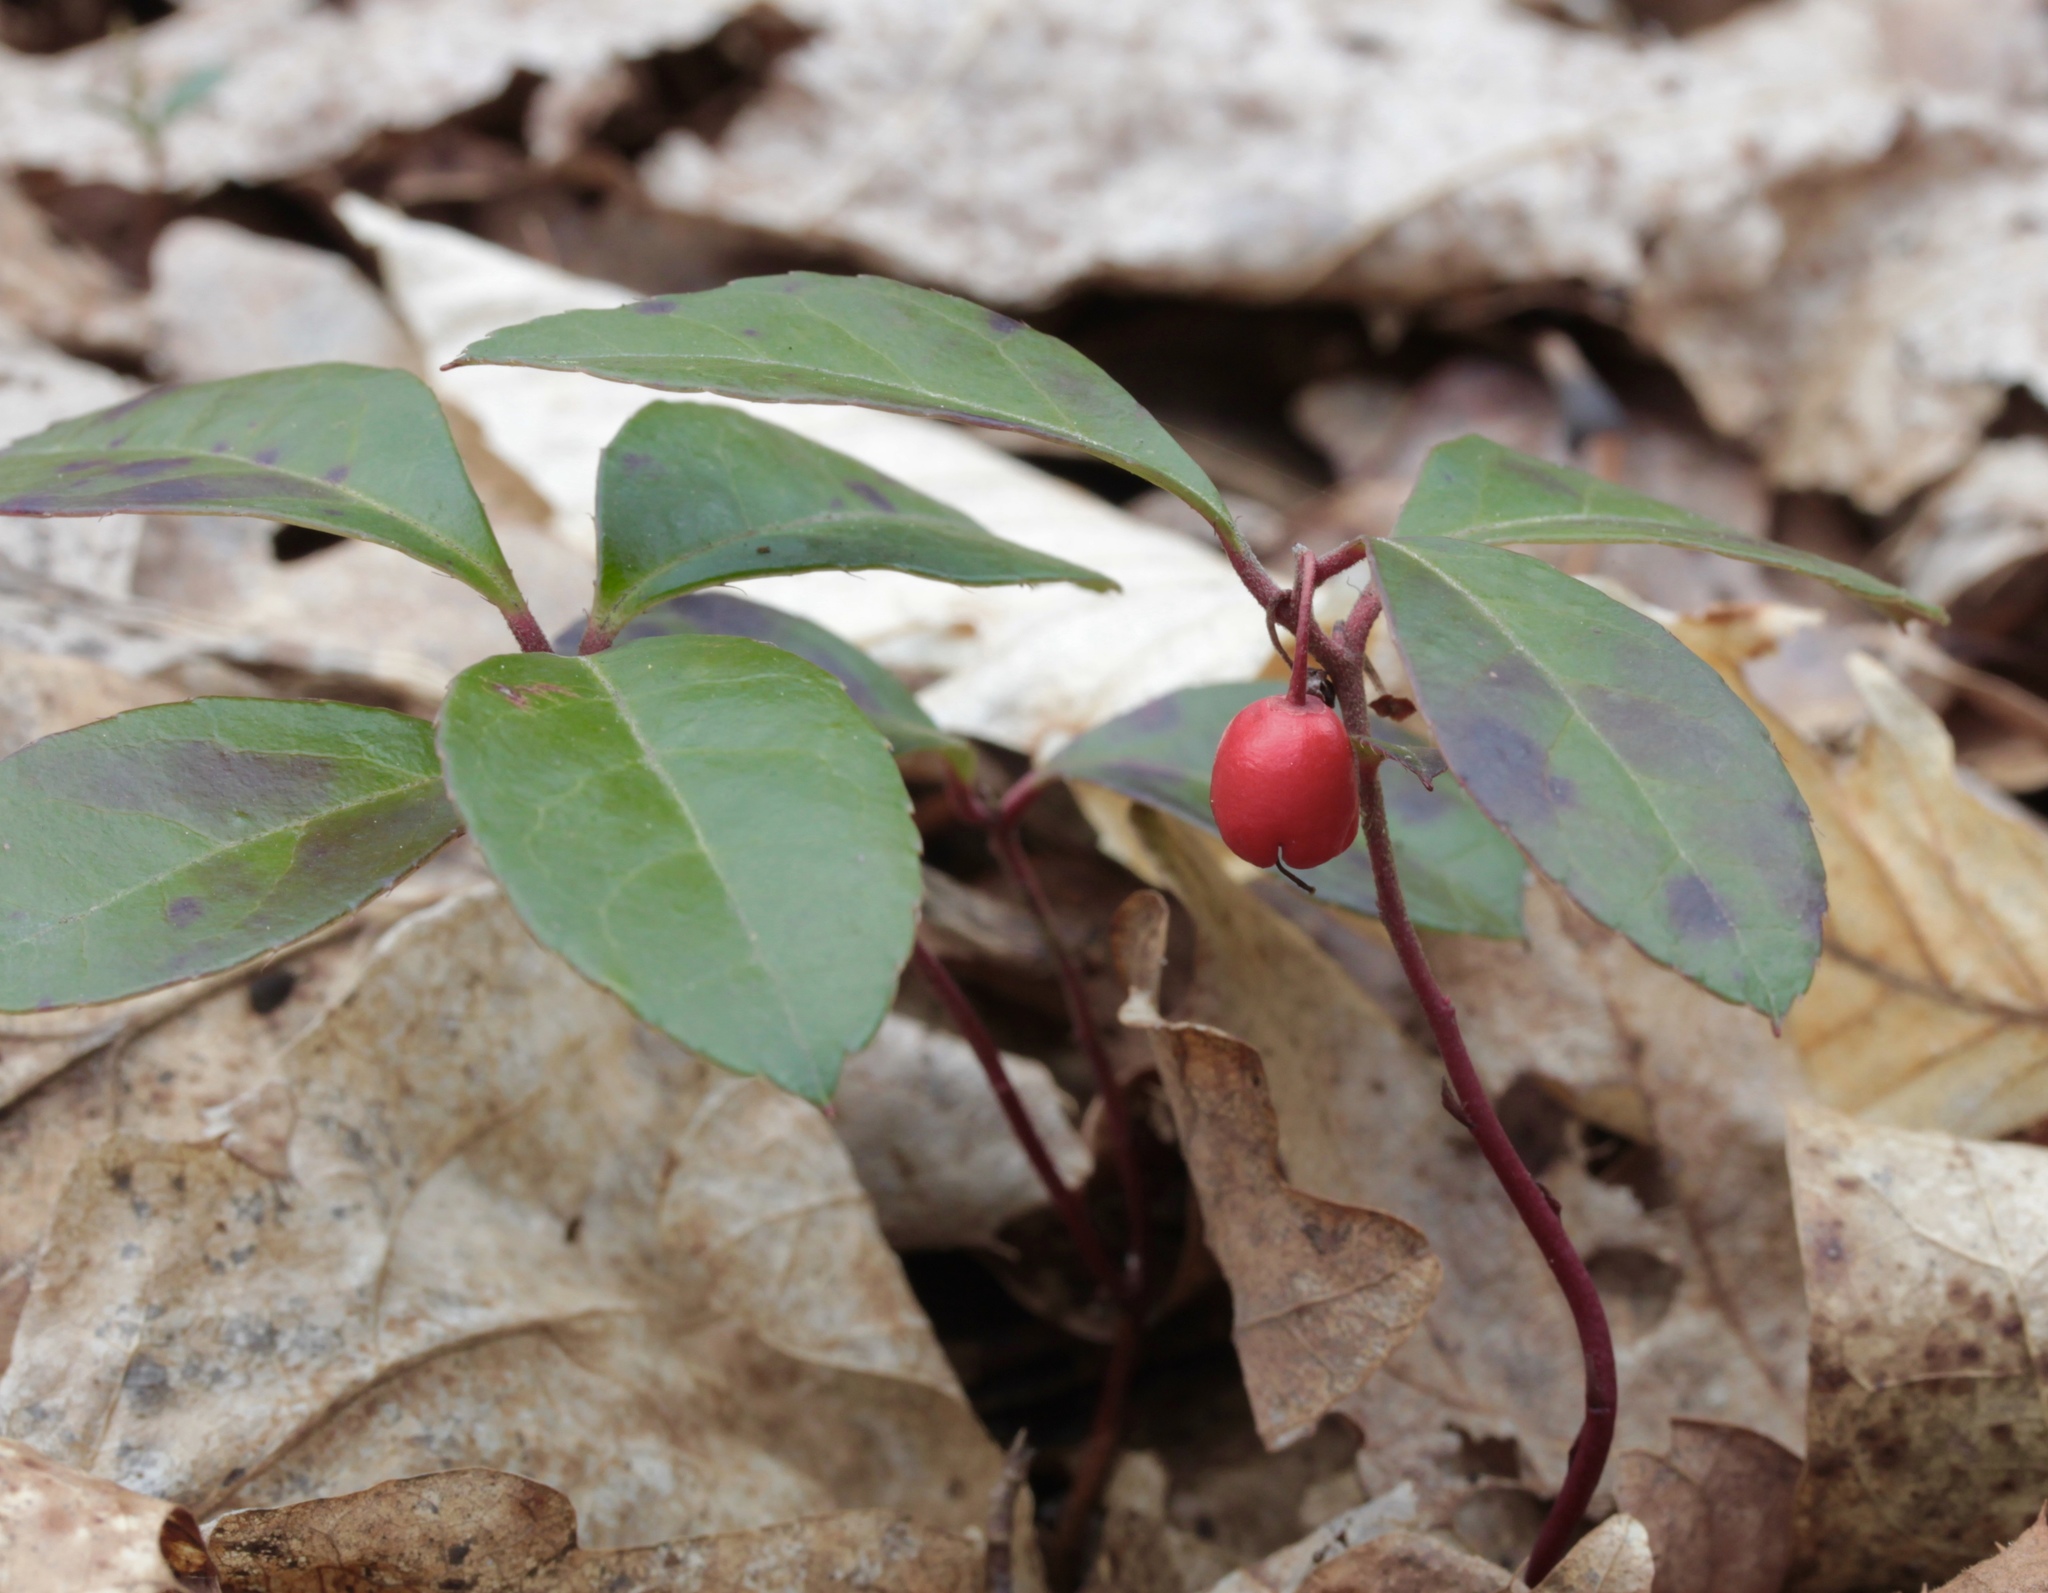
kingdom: Plantae
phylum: Tracheophyta
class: Magnoliopsida
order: Ericales
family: Ericaceae
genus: Gaultheria
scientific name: Gaultheria procumbens
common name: Checkerberry
